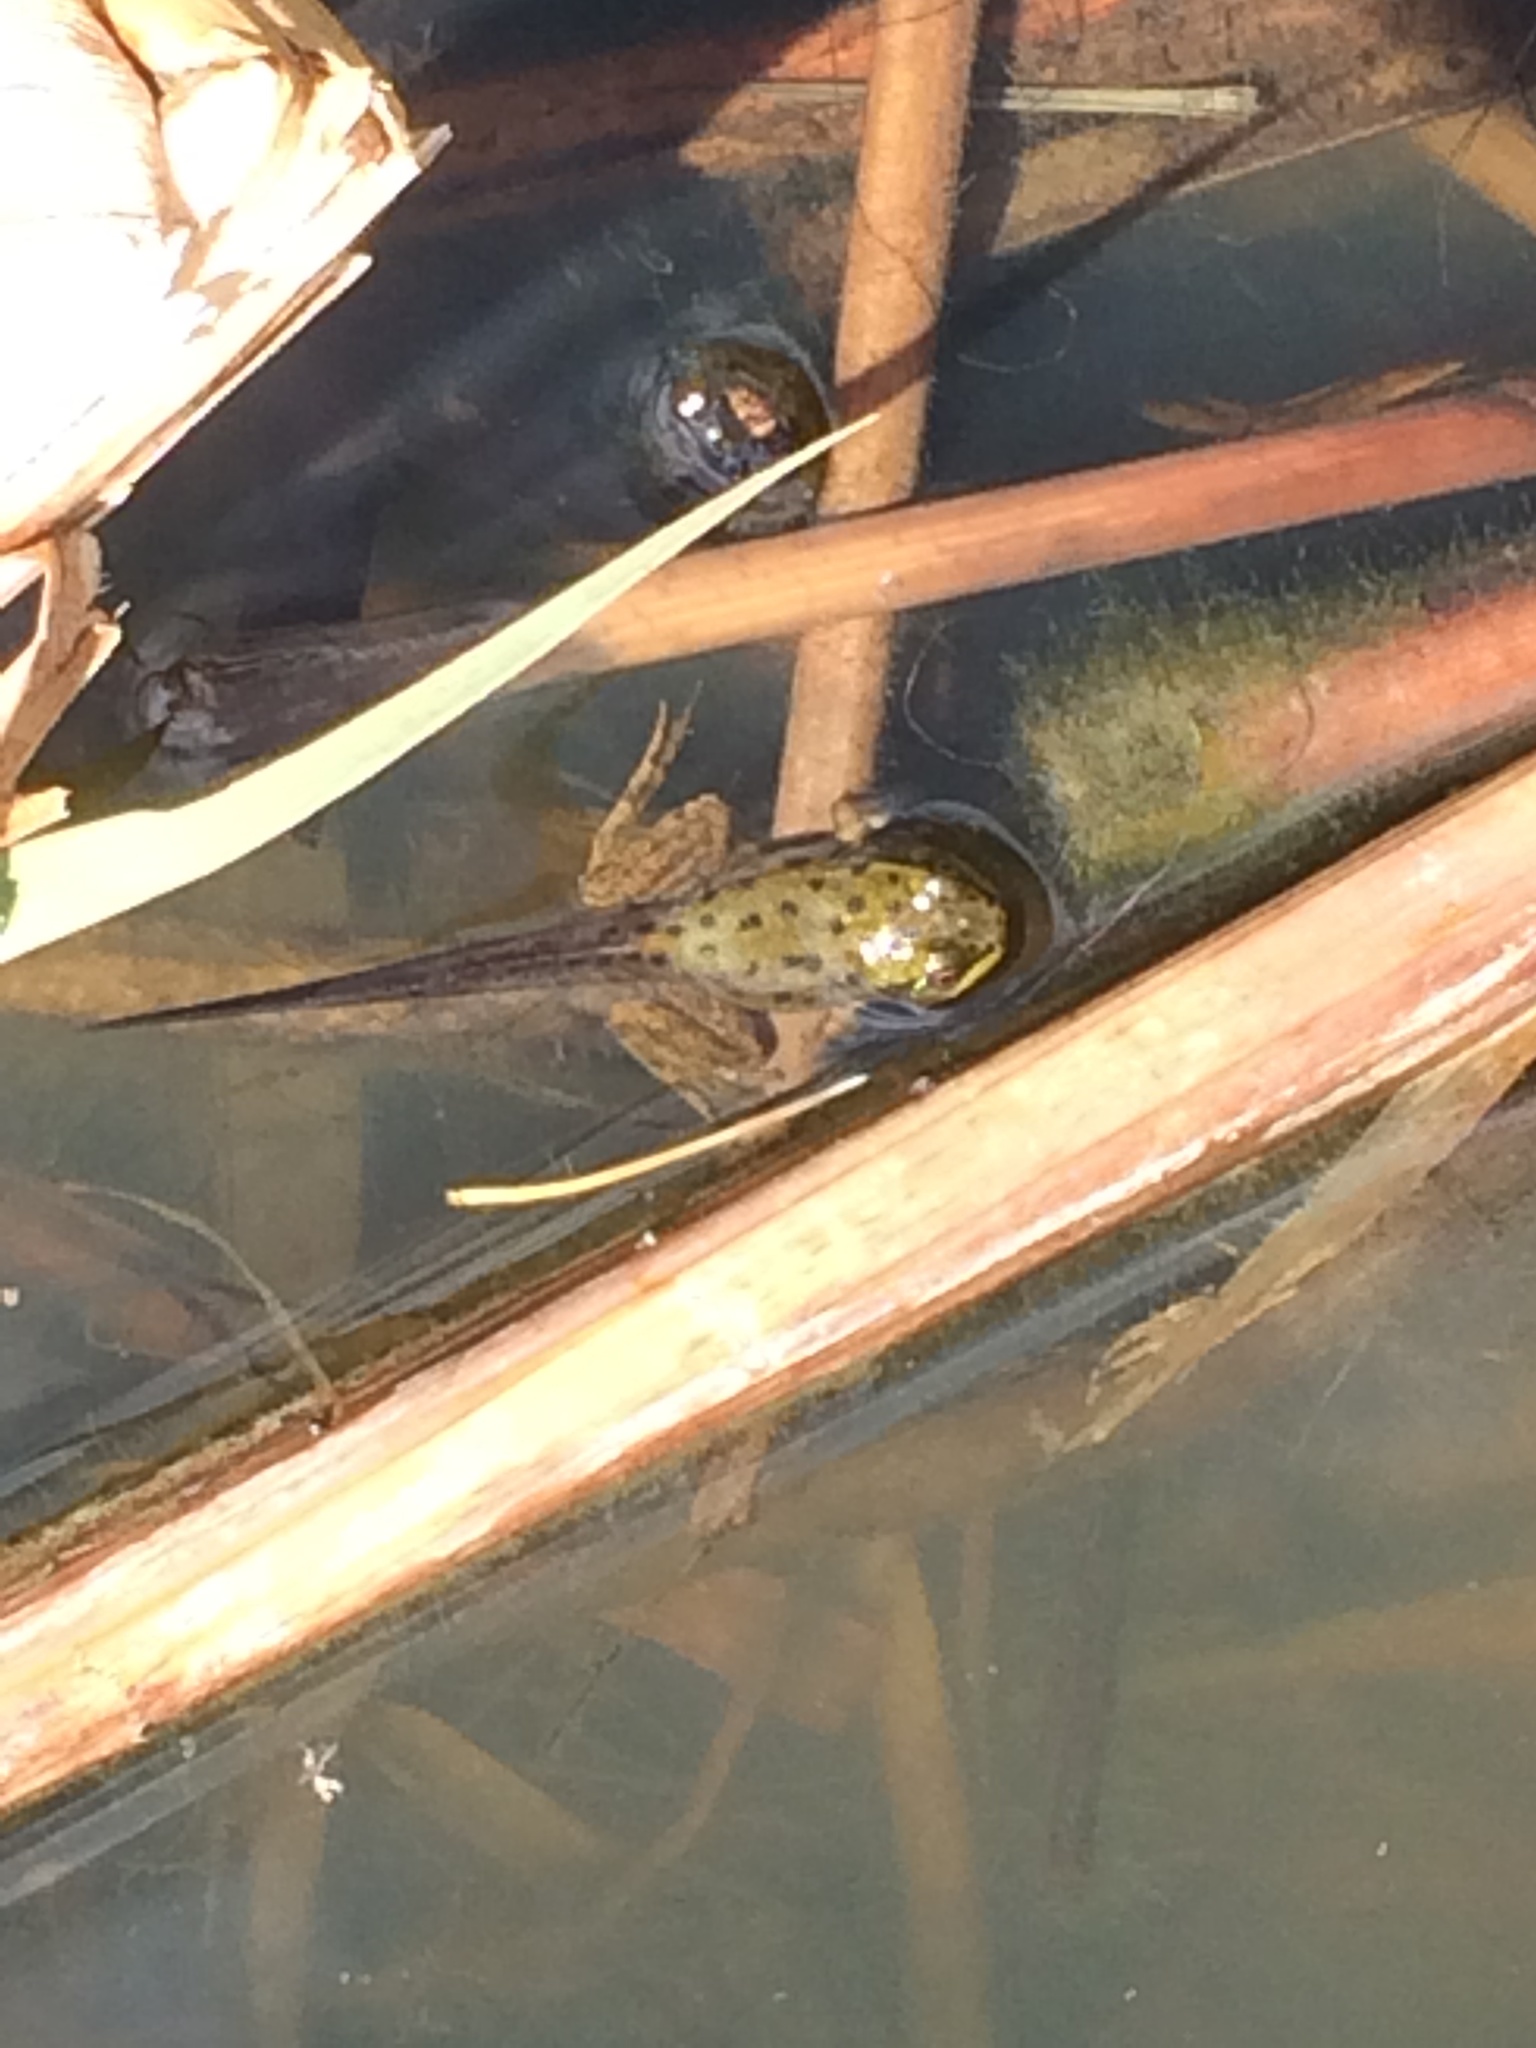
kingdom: Animalia
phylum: Chordata
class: Amphibia
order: Anura
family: Ranidae
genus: Lithobates
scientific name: Lithobates clamitans
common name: Green frog
